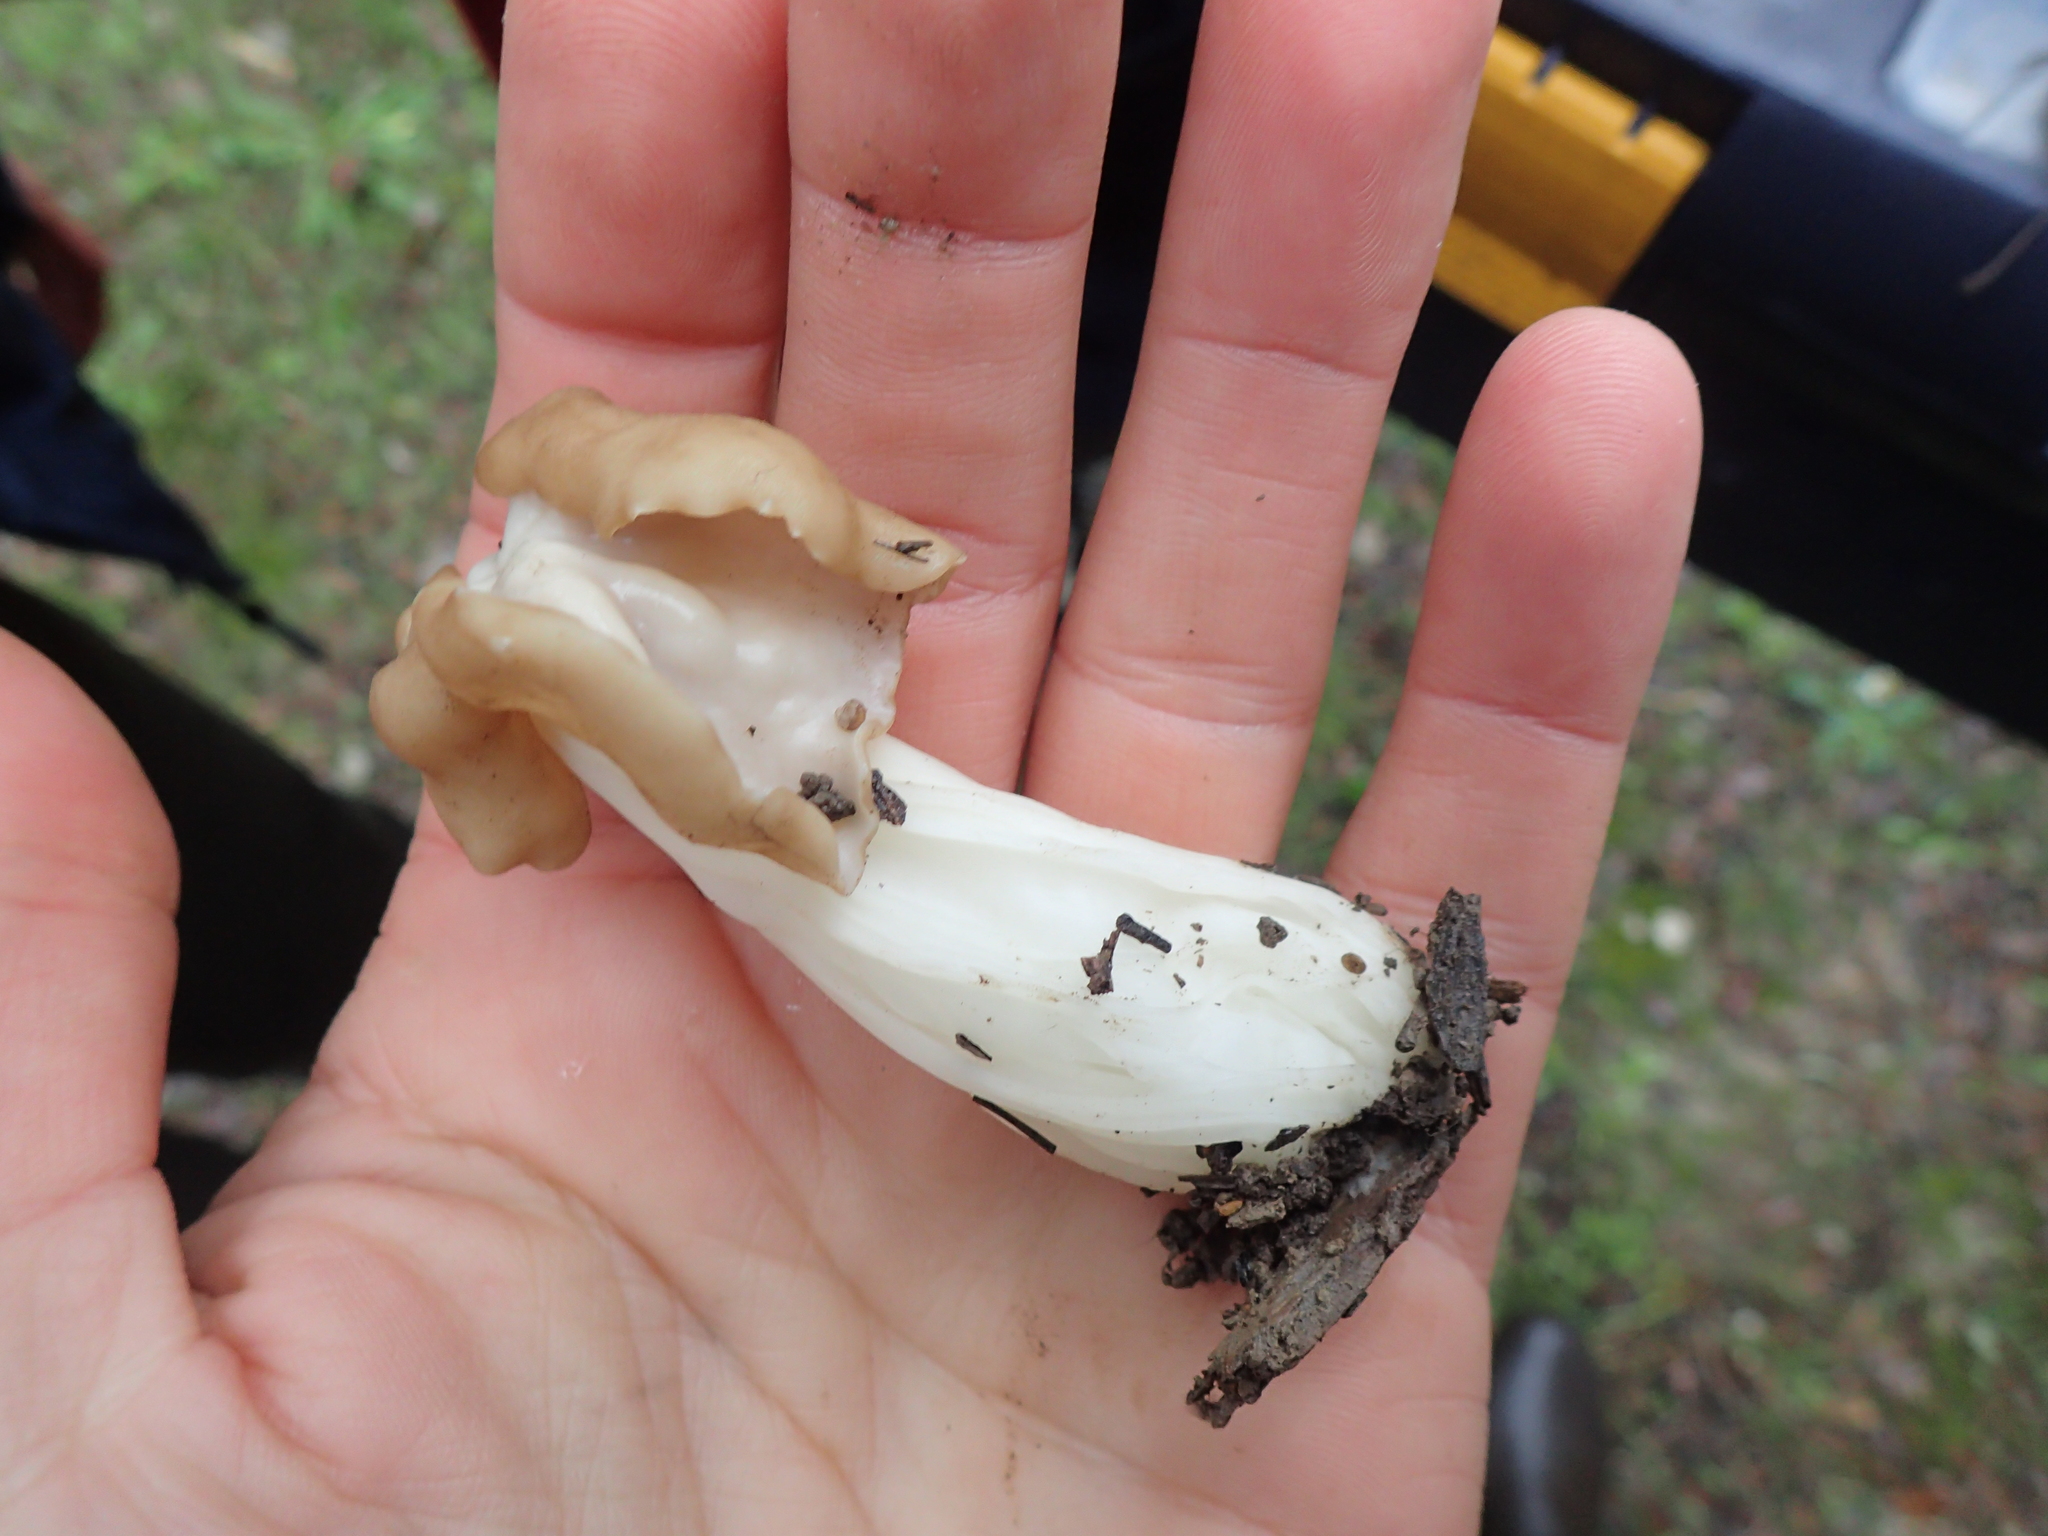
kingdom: Fungi
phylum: Ascomycota
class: Pezizomycetes
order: Pezizales
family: Helvellaceae
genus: Helvella
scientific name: Helvella crispa
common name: White saddle
